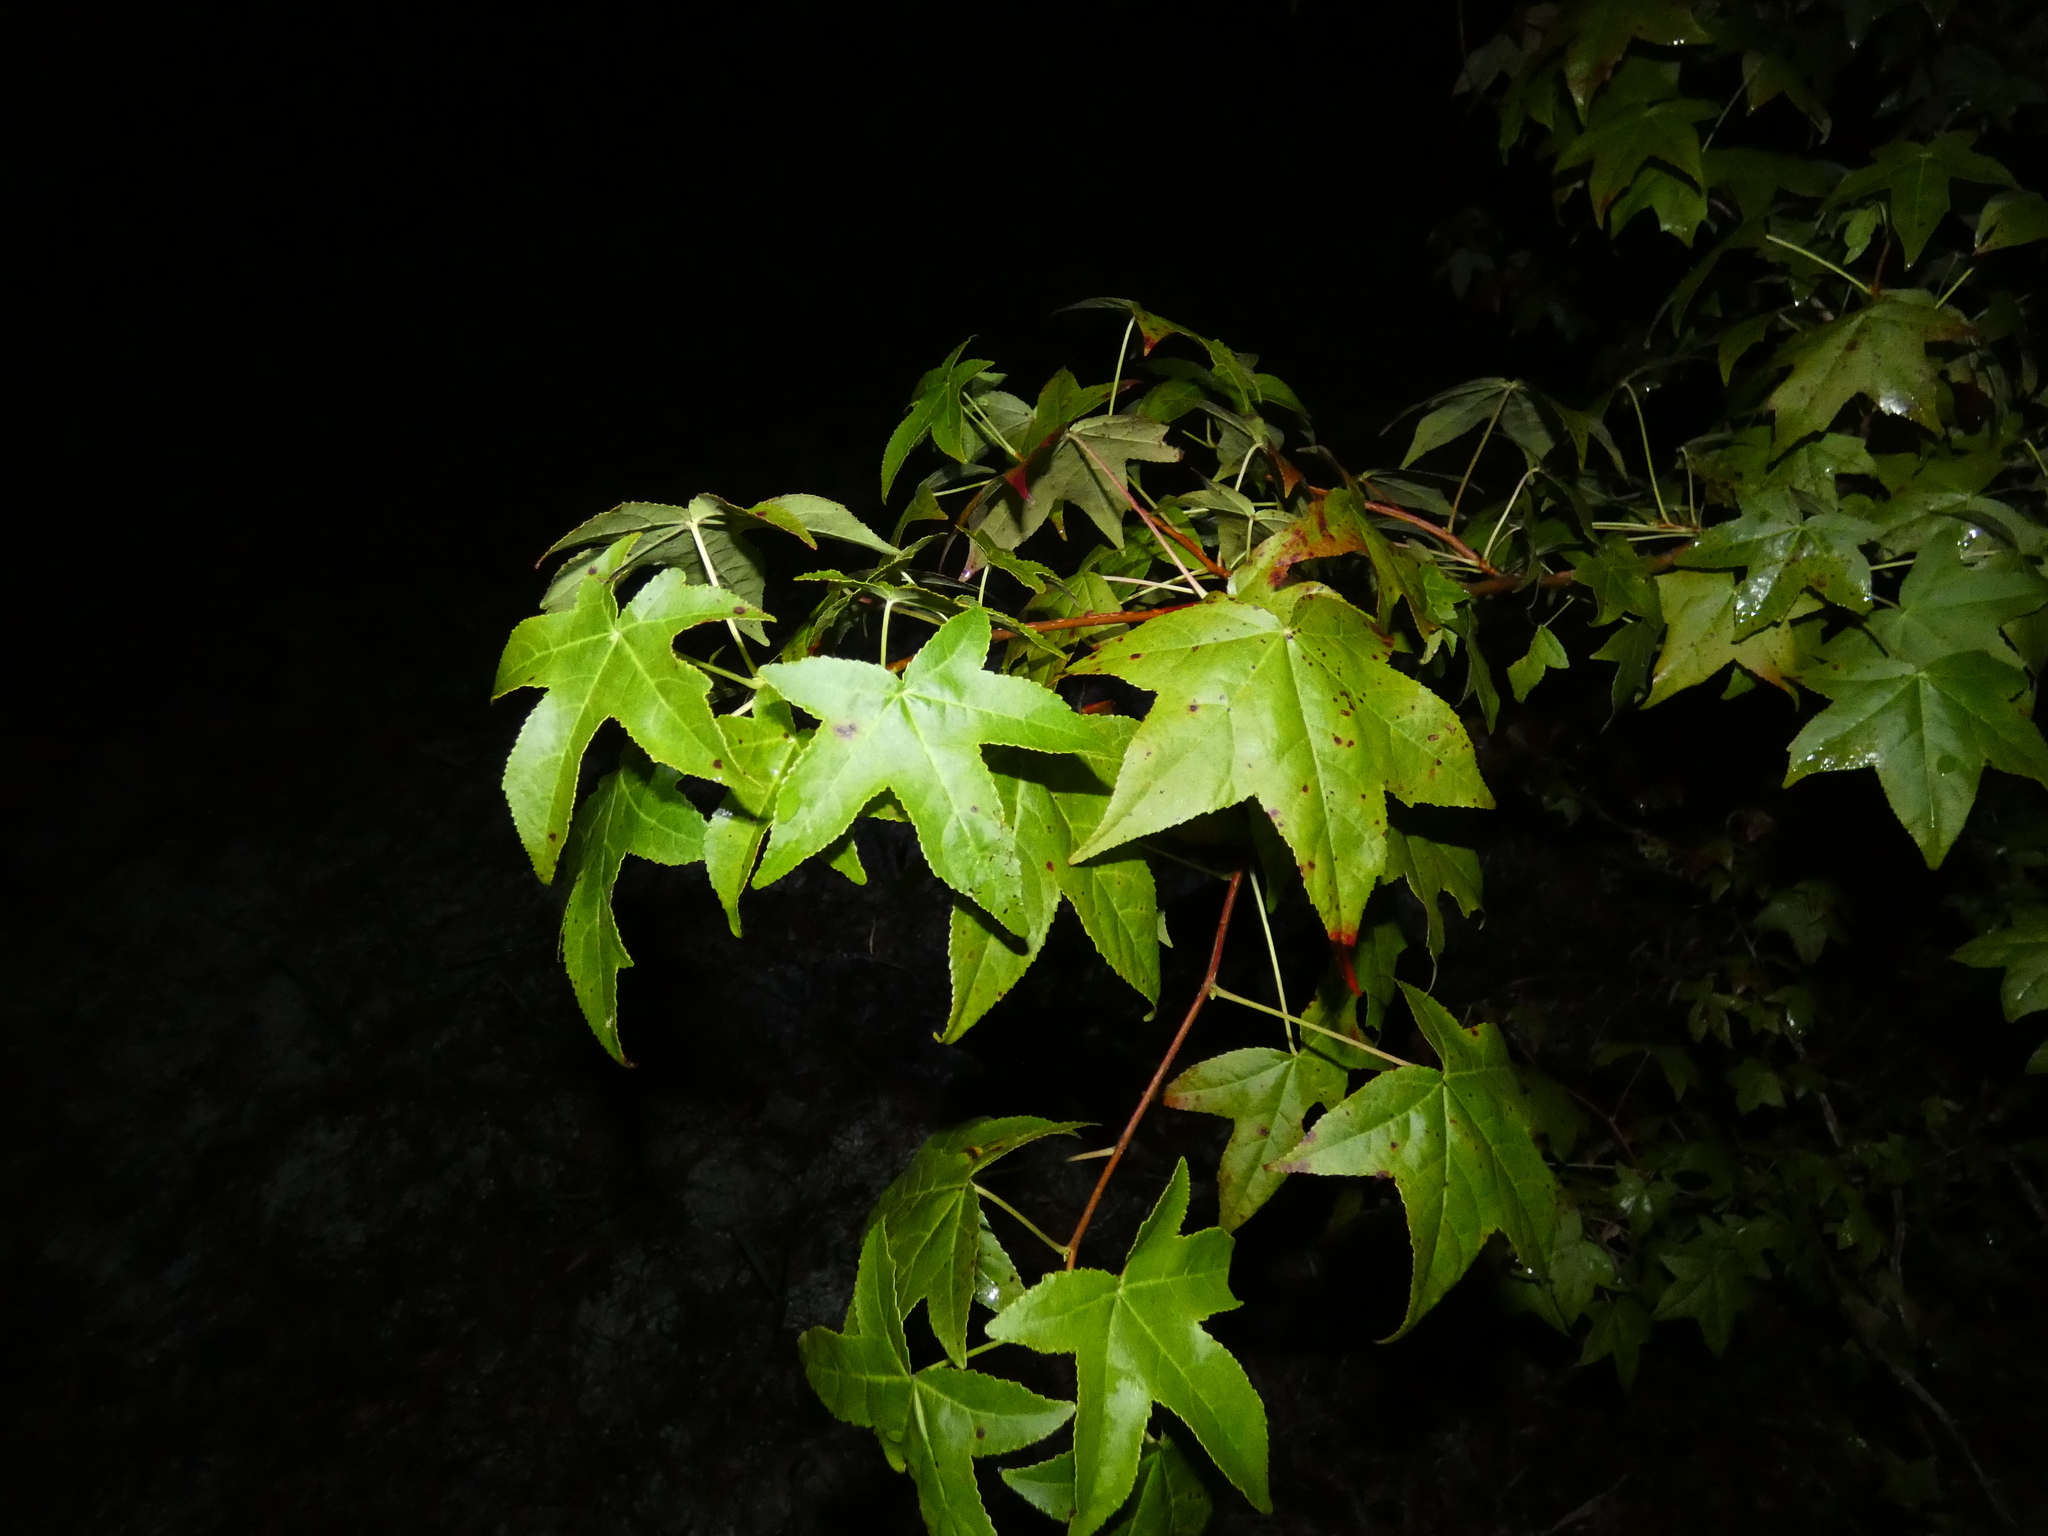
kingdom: Plantae
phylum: Tracheophyta
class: Magnoliopsida
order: Saxifragales
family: Altingiaceae
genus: Liquidambar
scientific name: Liquidambar styraciflua
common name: Sweet gum
